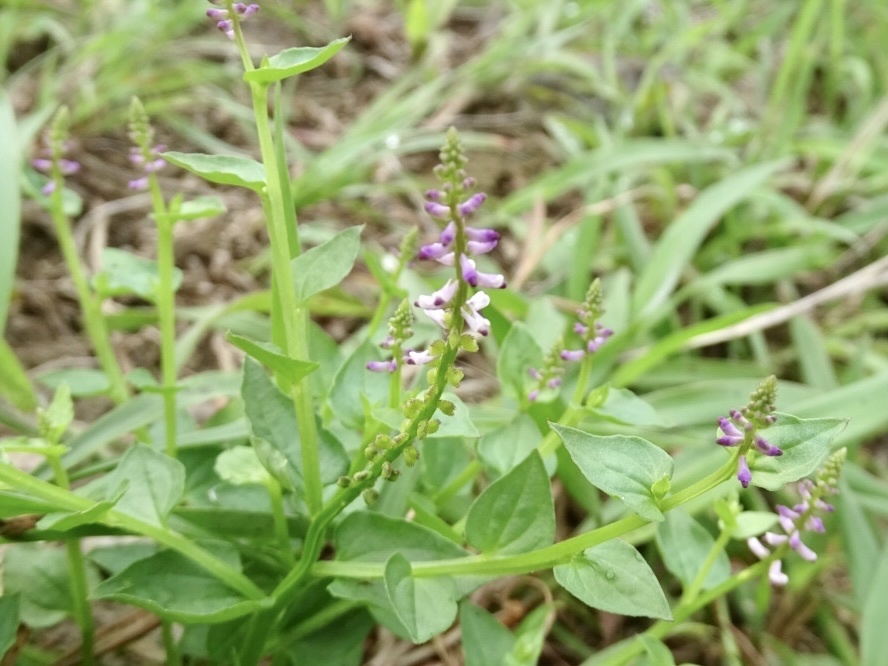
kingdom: Plantae
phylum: Tracheophyta
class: Magnoliopsida
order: Fabales
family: Polygalaceae
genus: Salomonia
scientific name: Salomonia cantoniensis
